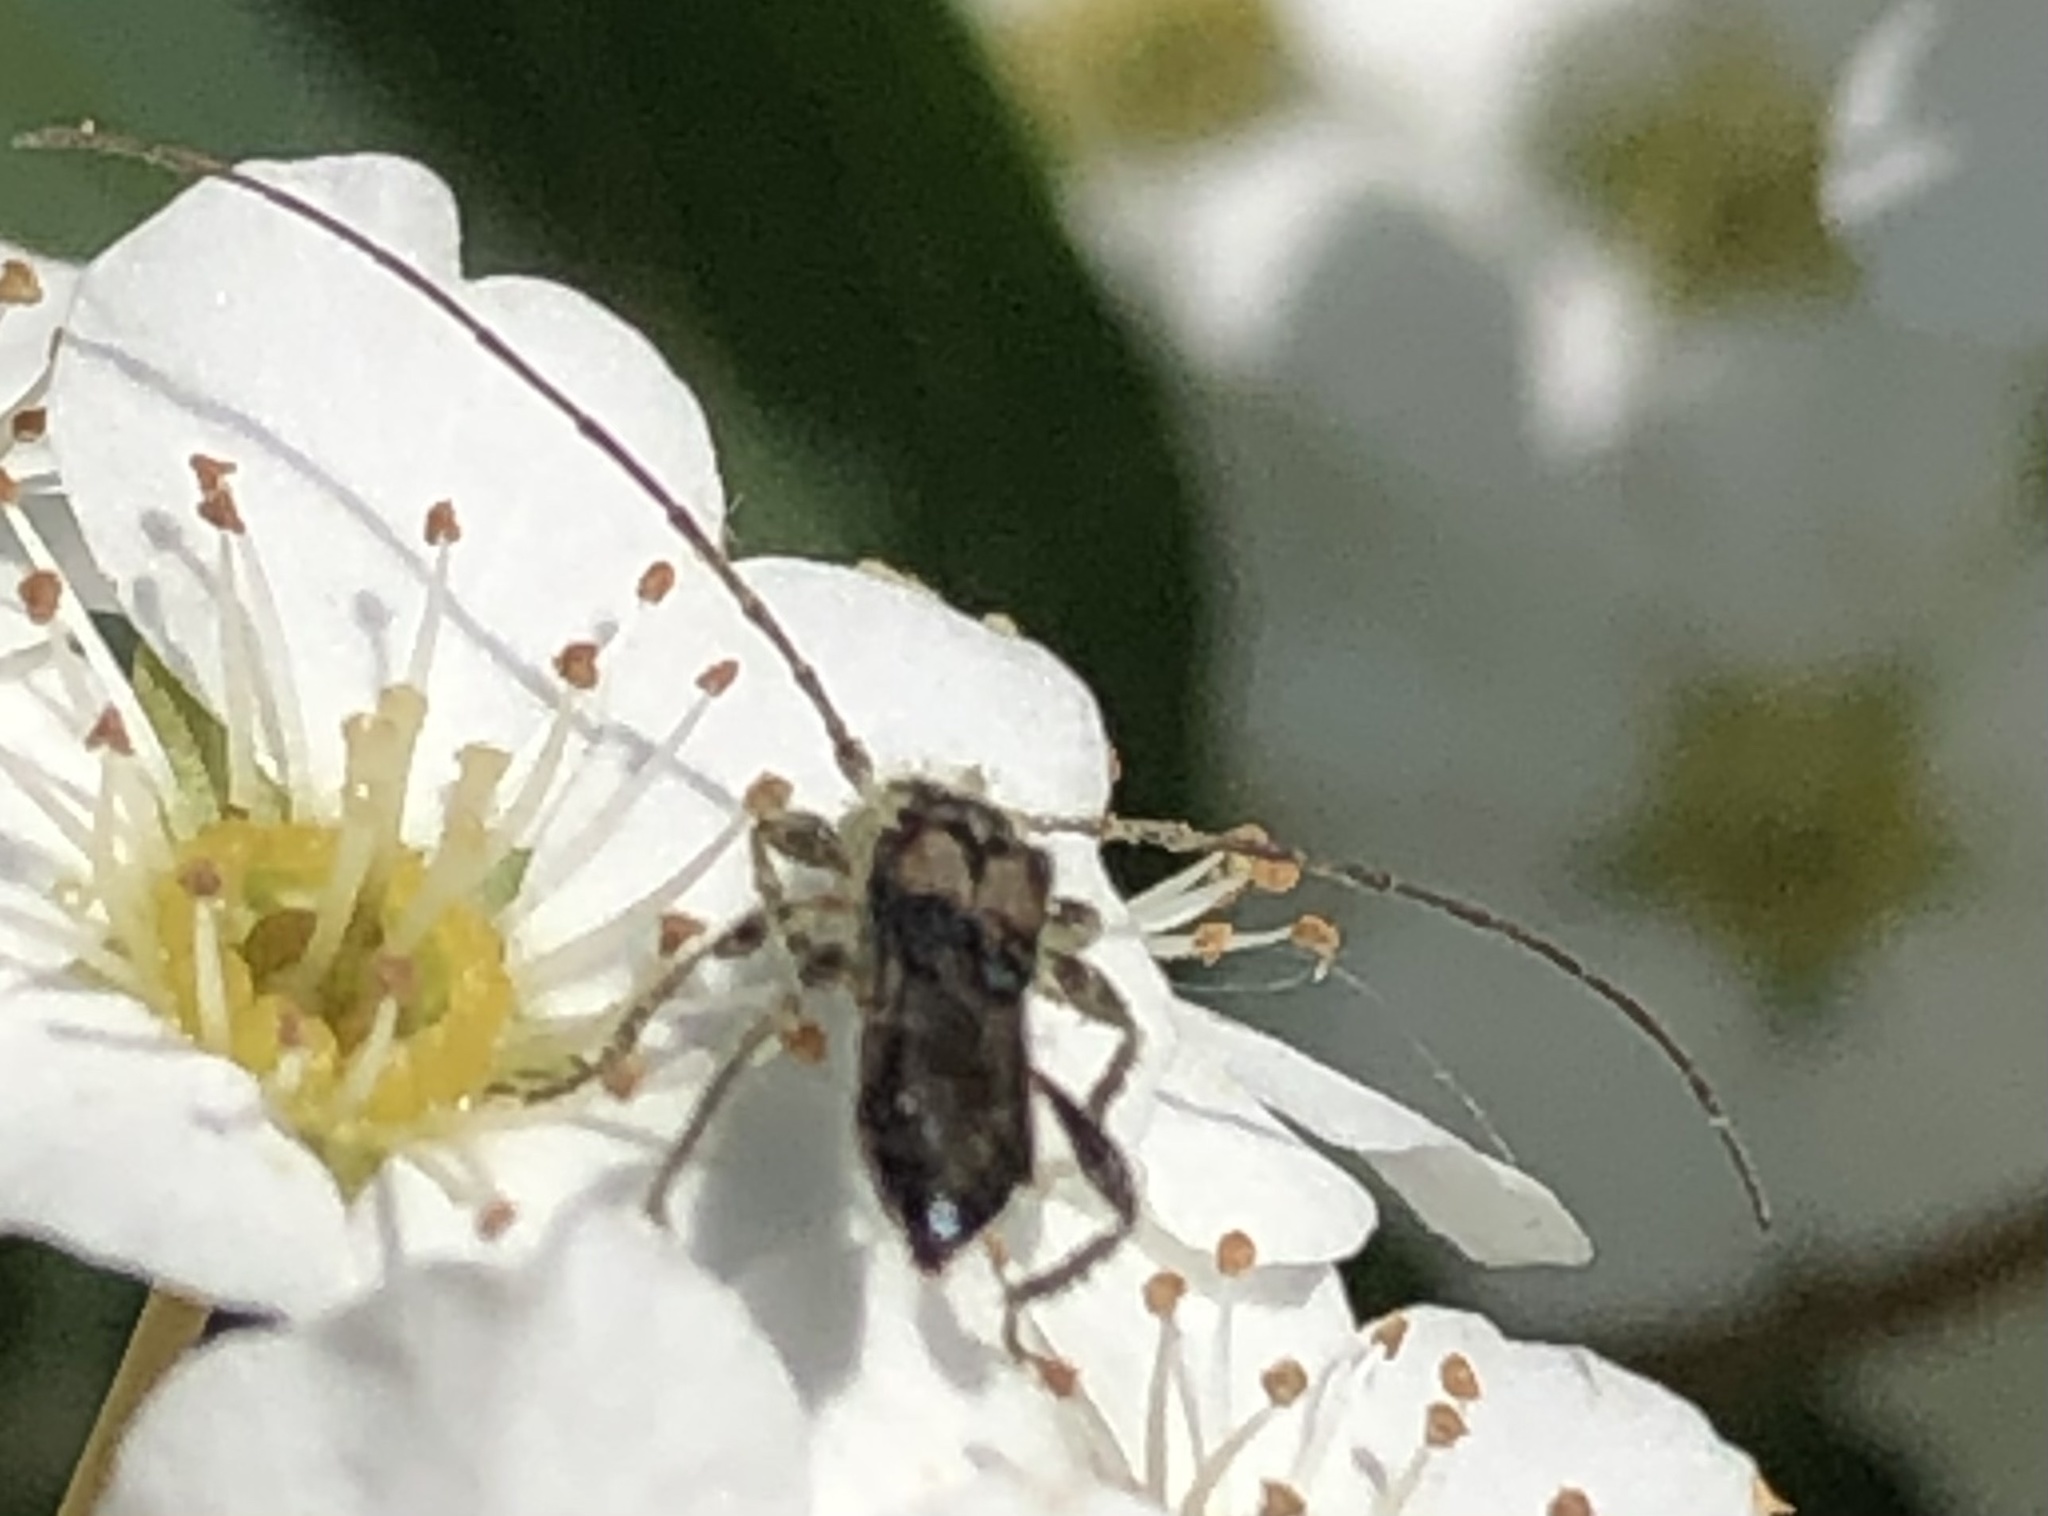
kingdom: Animalia
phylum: Arthropoda
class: Insecta
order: Coleoptera
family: Cerambycidae
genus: Molorchus
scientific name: Molorchus bimaculatus
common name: Bimaculate longhorn beetle
